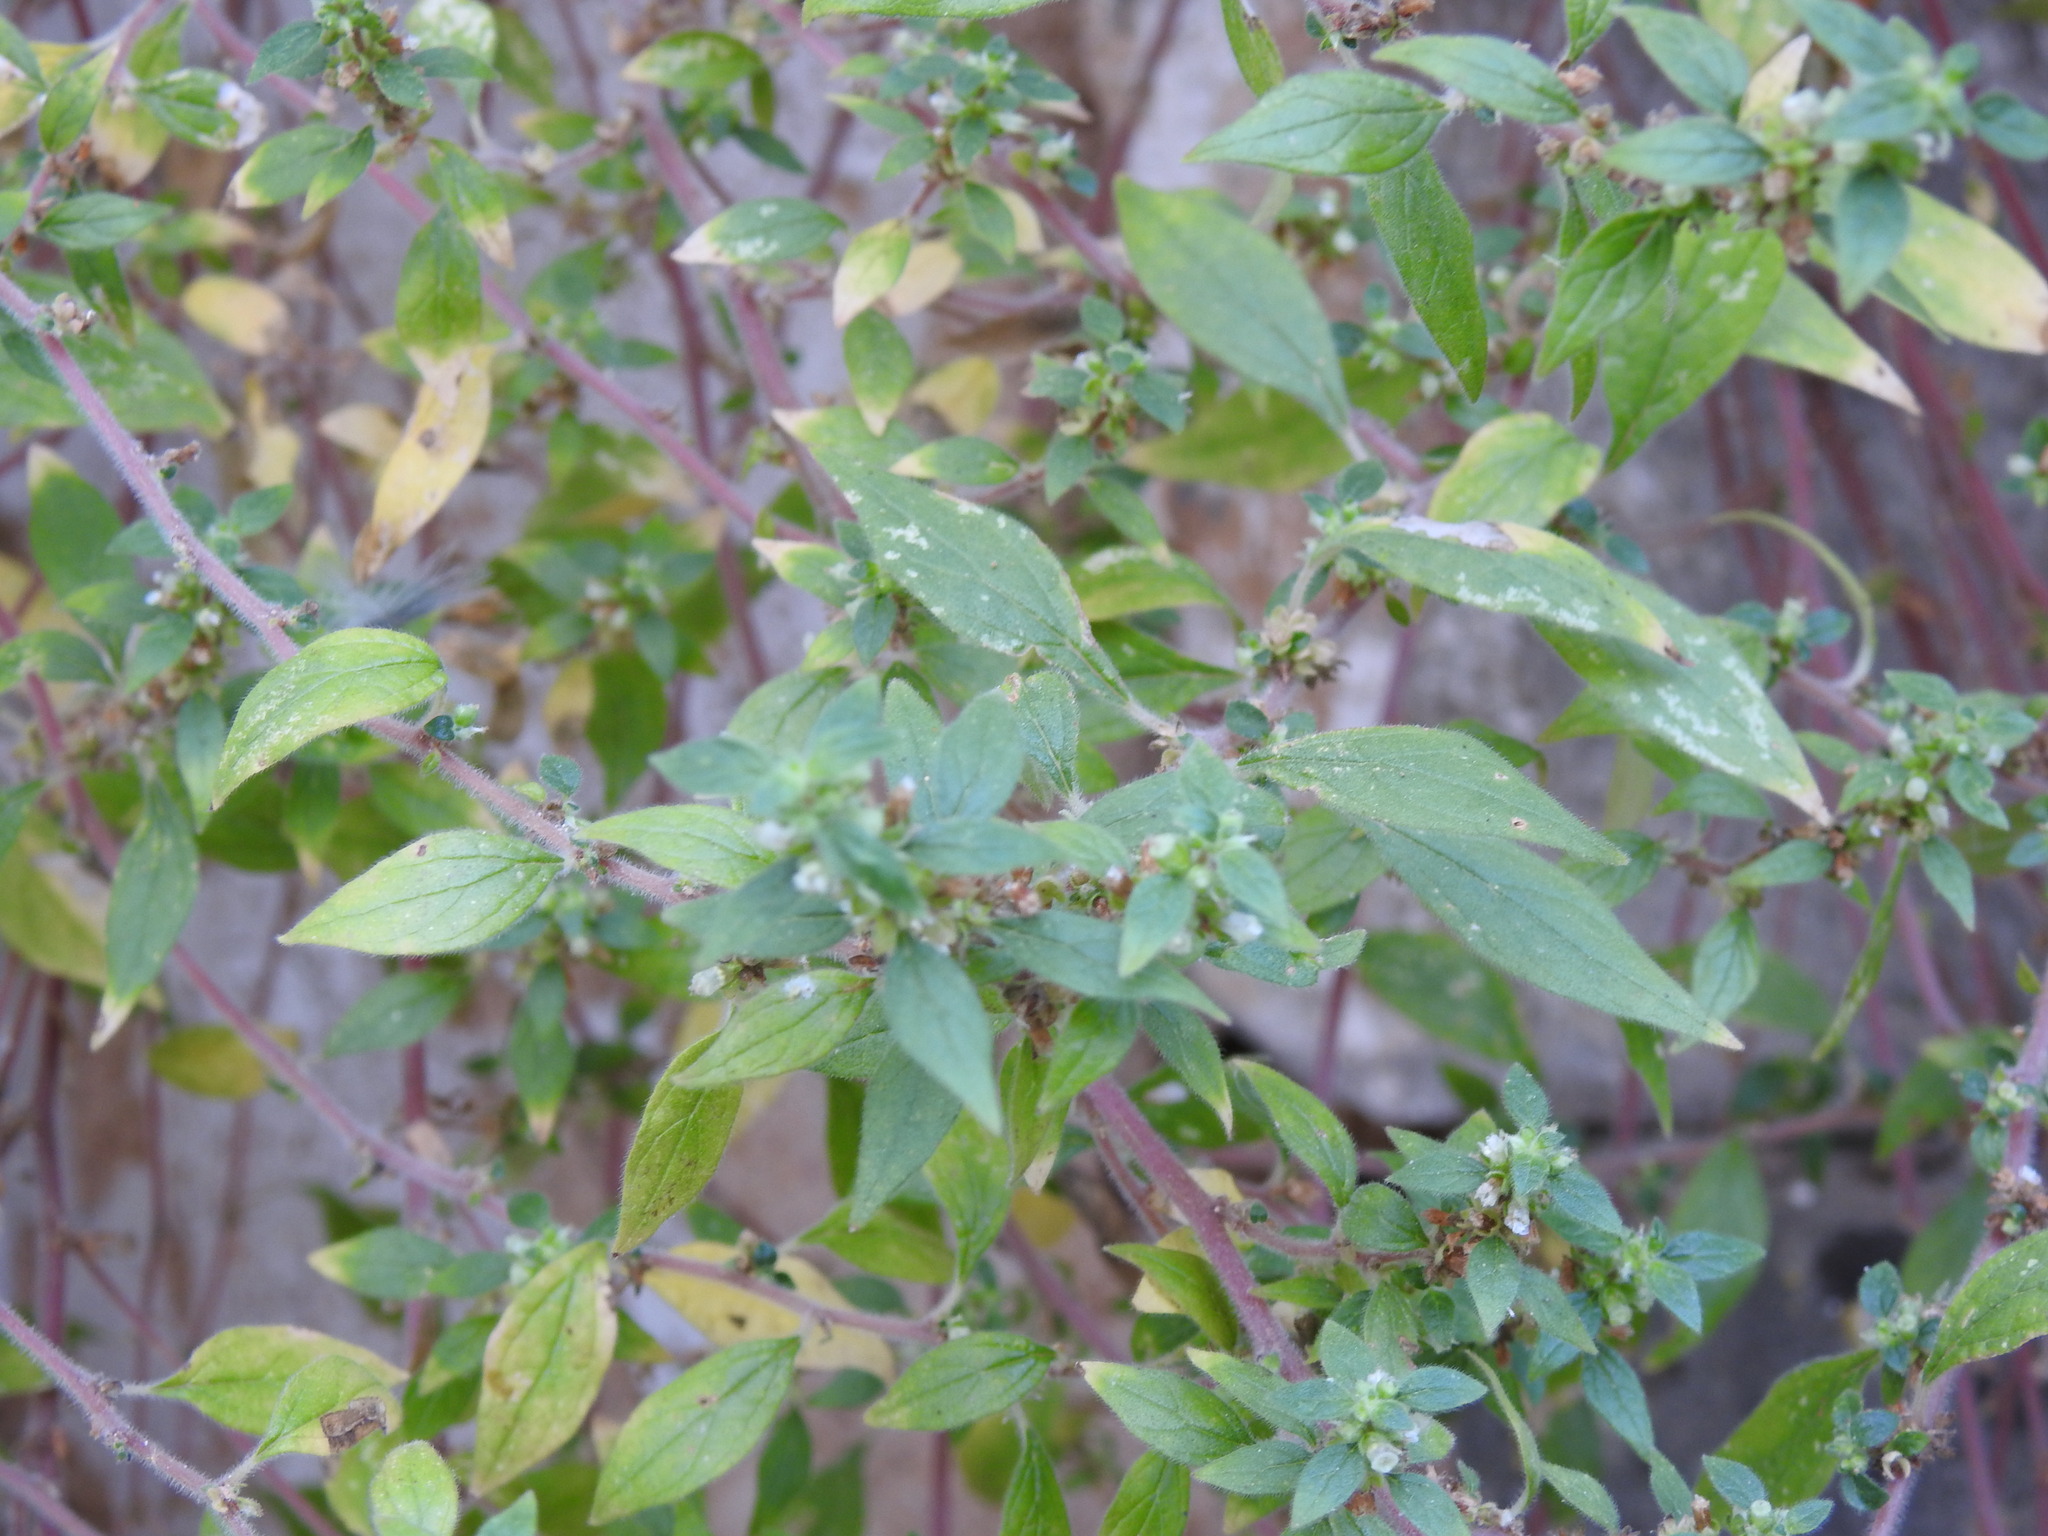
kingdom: Plantae
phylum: Tracheophyta
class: Magnoliopsida
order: Rosales
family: Urticaceae
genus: Parietaria
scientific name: Parietaria judaica
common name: Pellitory-of-the-wall
